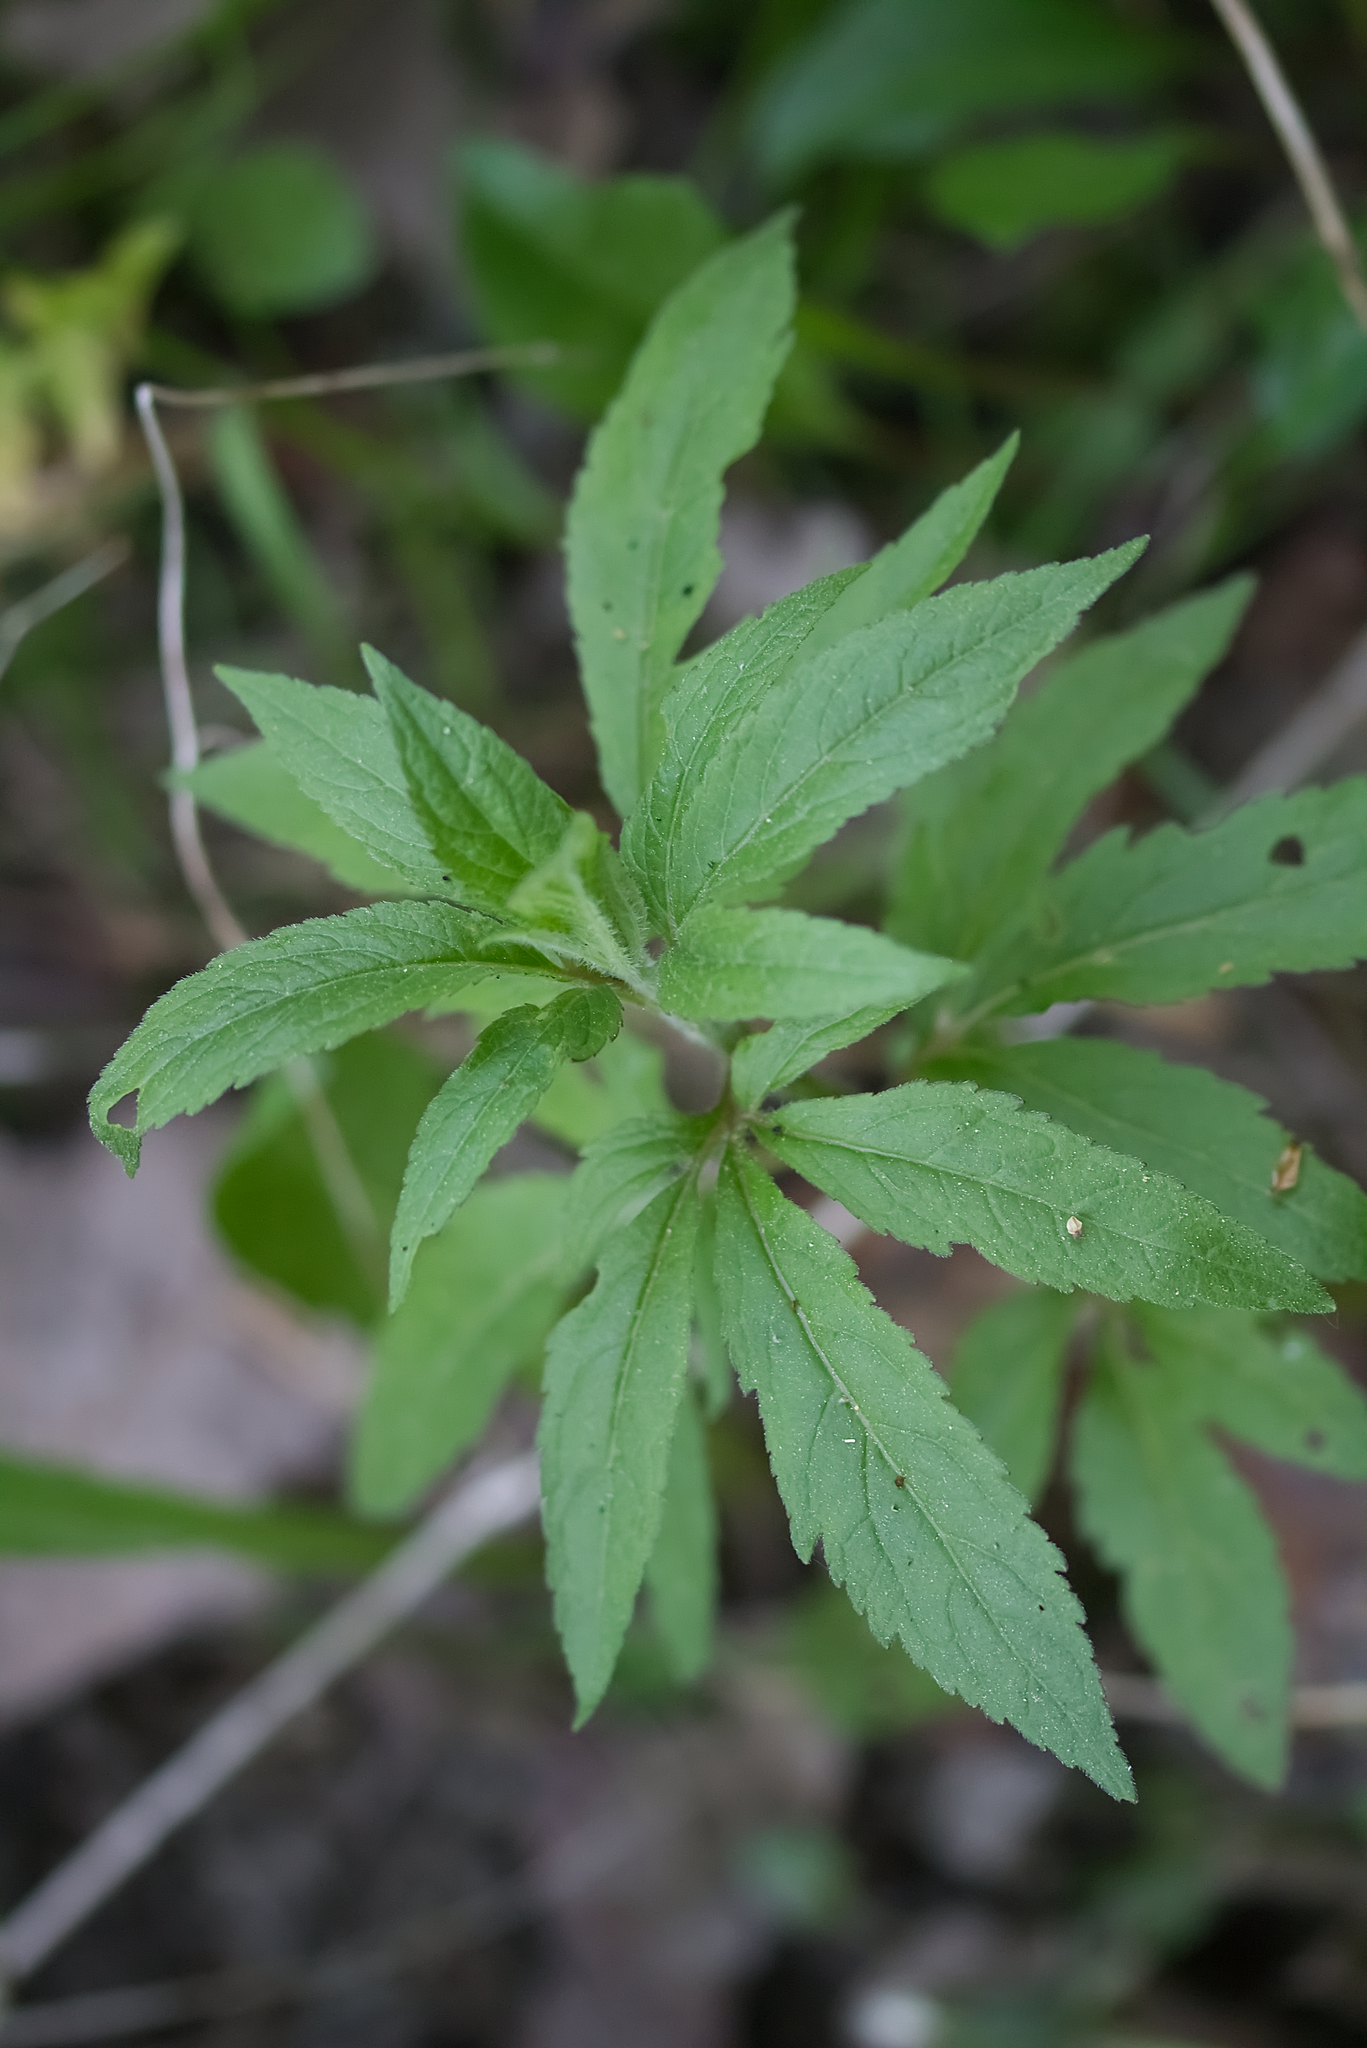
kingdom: Plantae
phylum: Tracheophyta
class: Magnoliopsida
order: Asterales
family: Asteraceae
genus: Eupatorium
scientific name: Eupatorium cannabinum
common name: Hemp-agrimony
